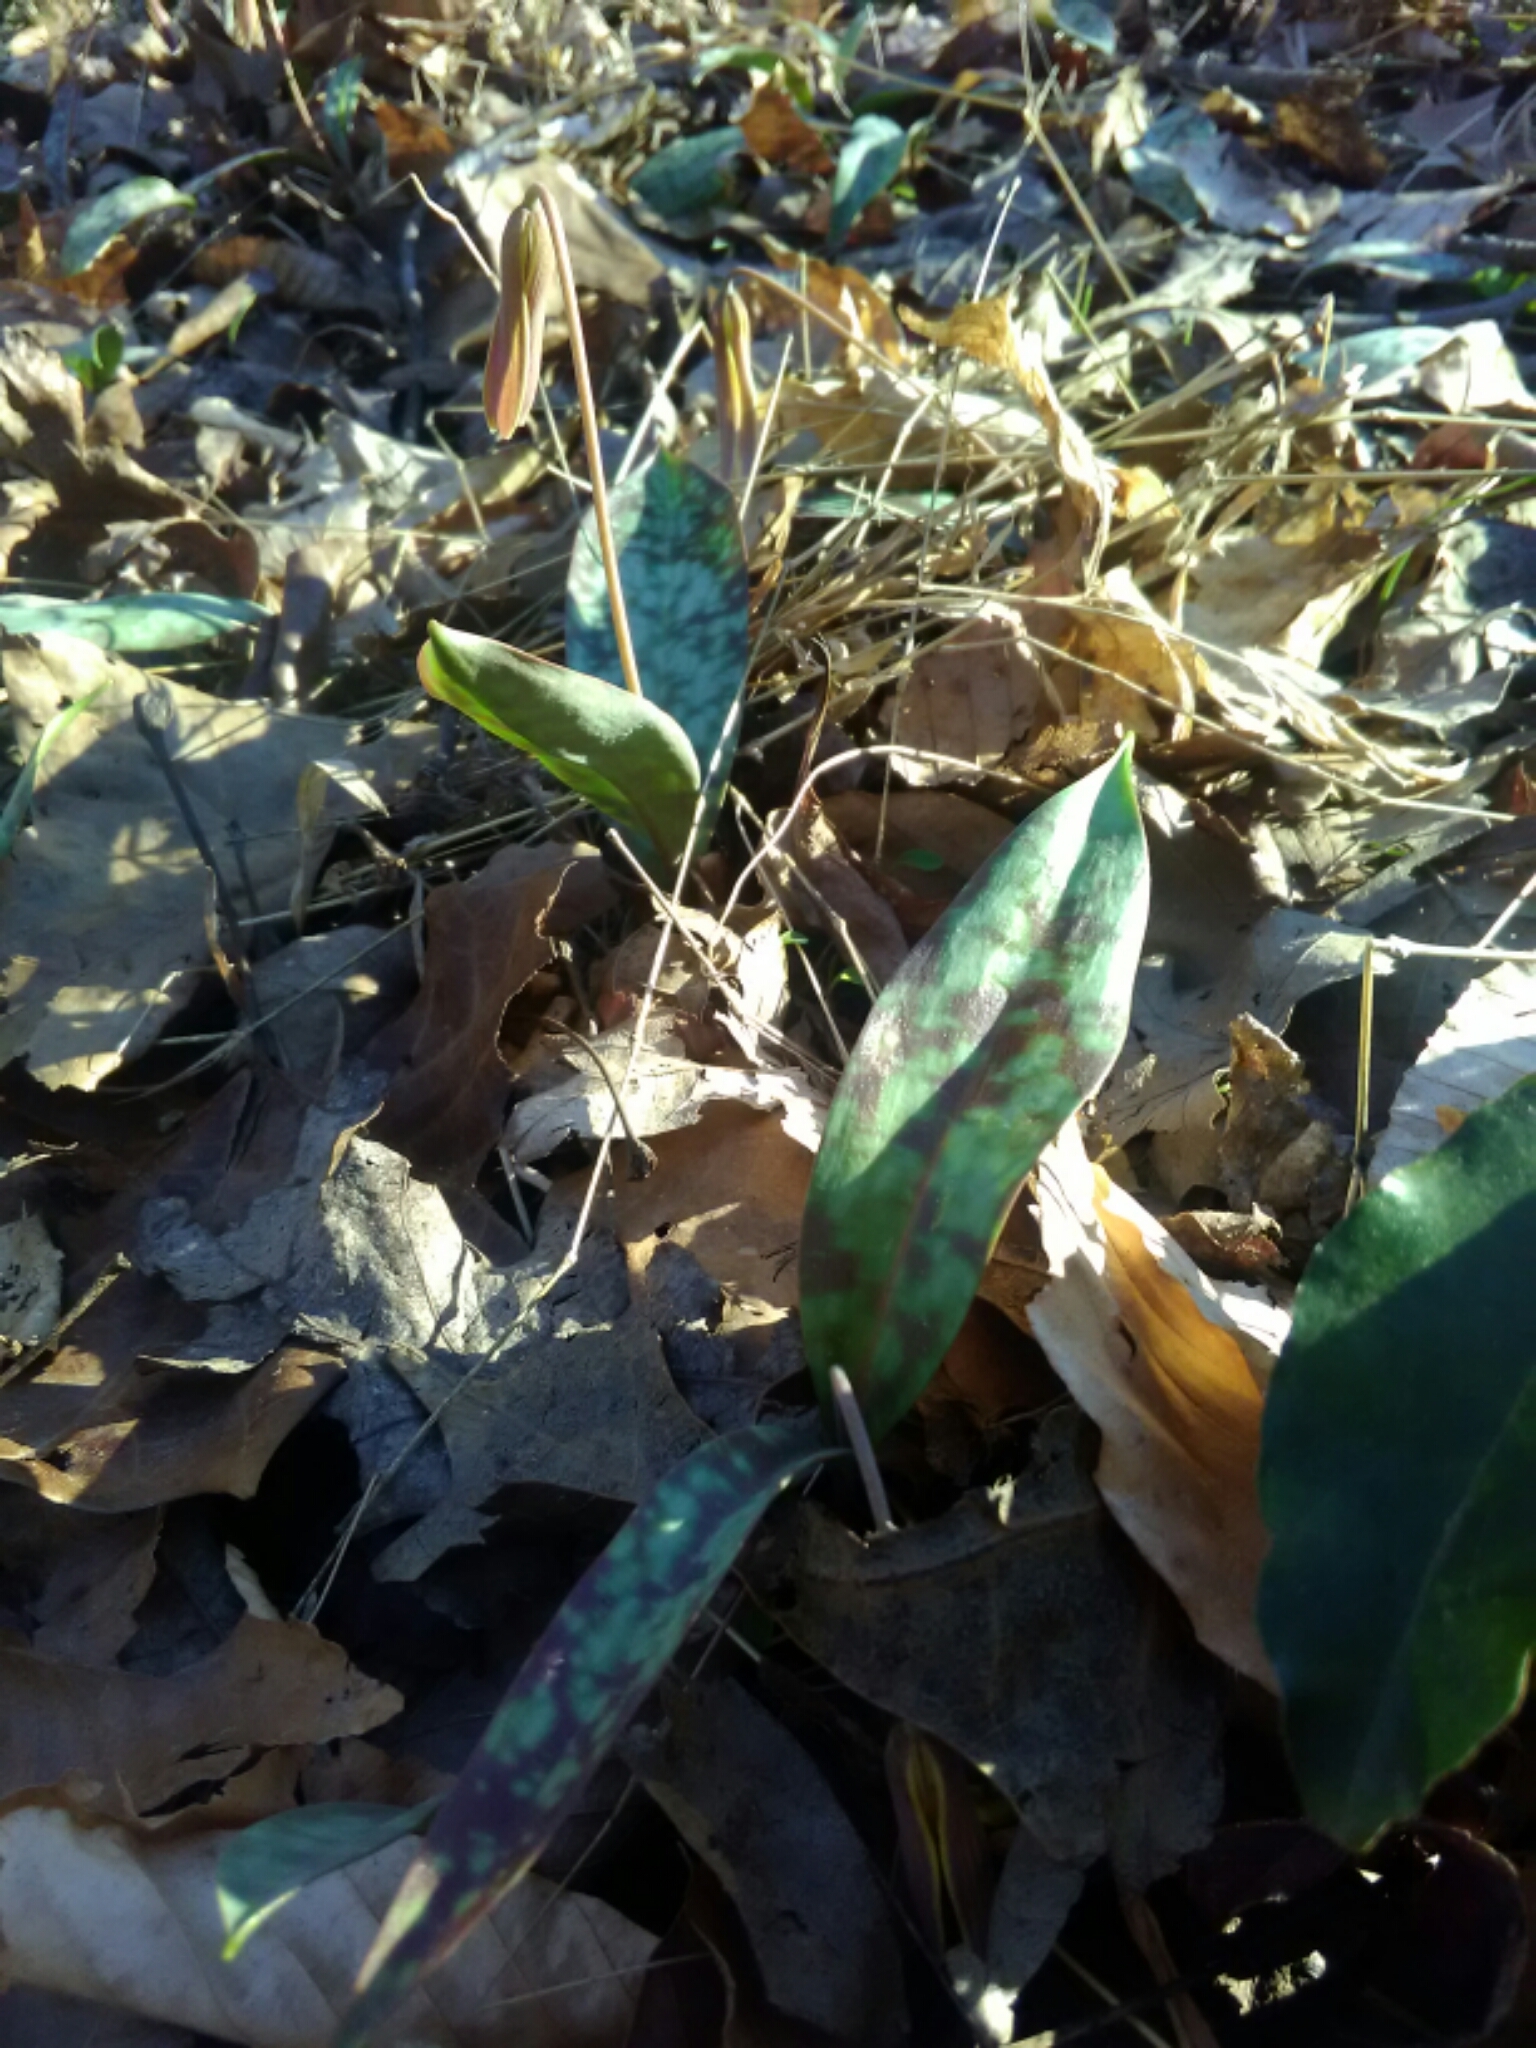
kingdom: Plantae
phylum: Tracheophyta
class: Liliopsida
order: Liliales
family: Liliaceae
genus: Erythronium
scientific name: Erythronium umbilicatum
